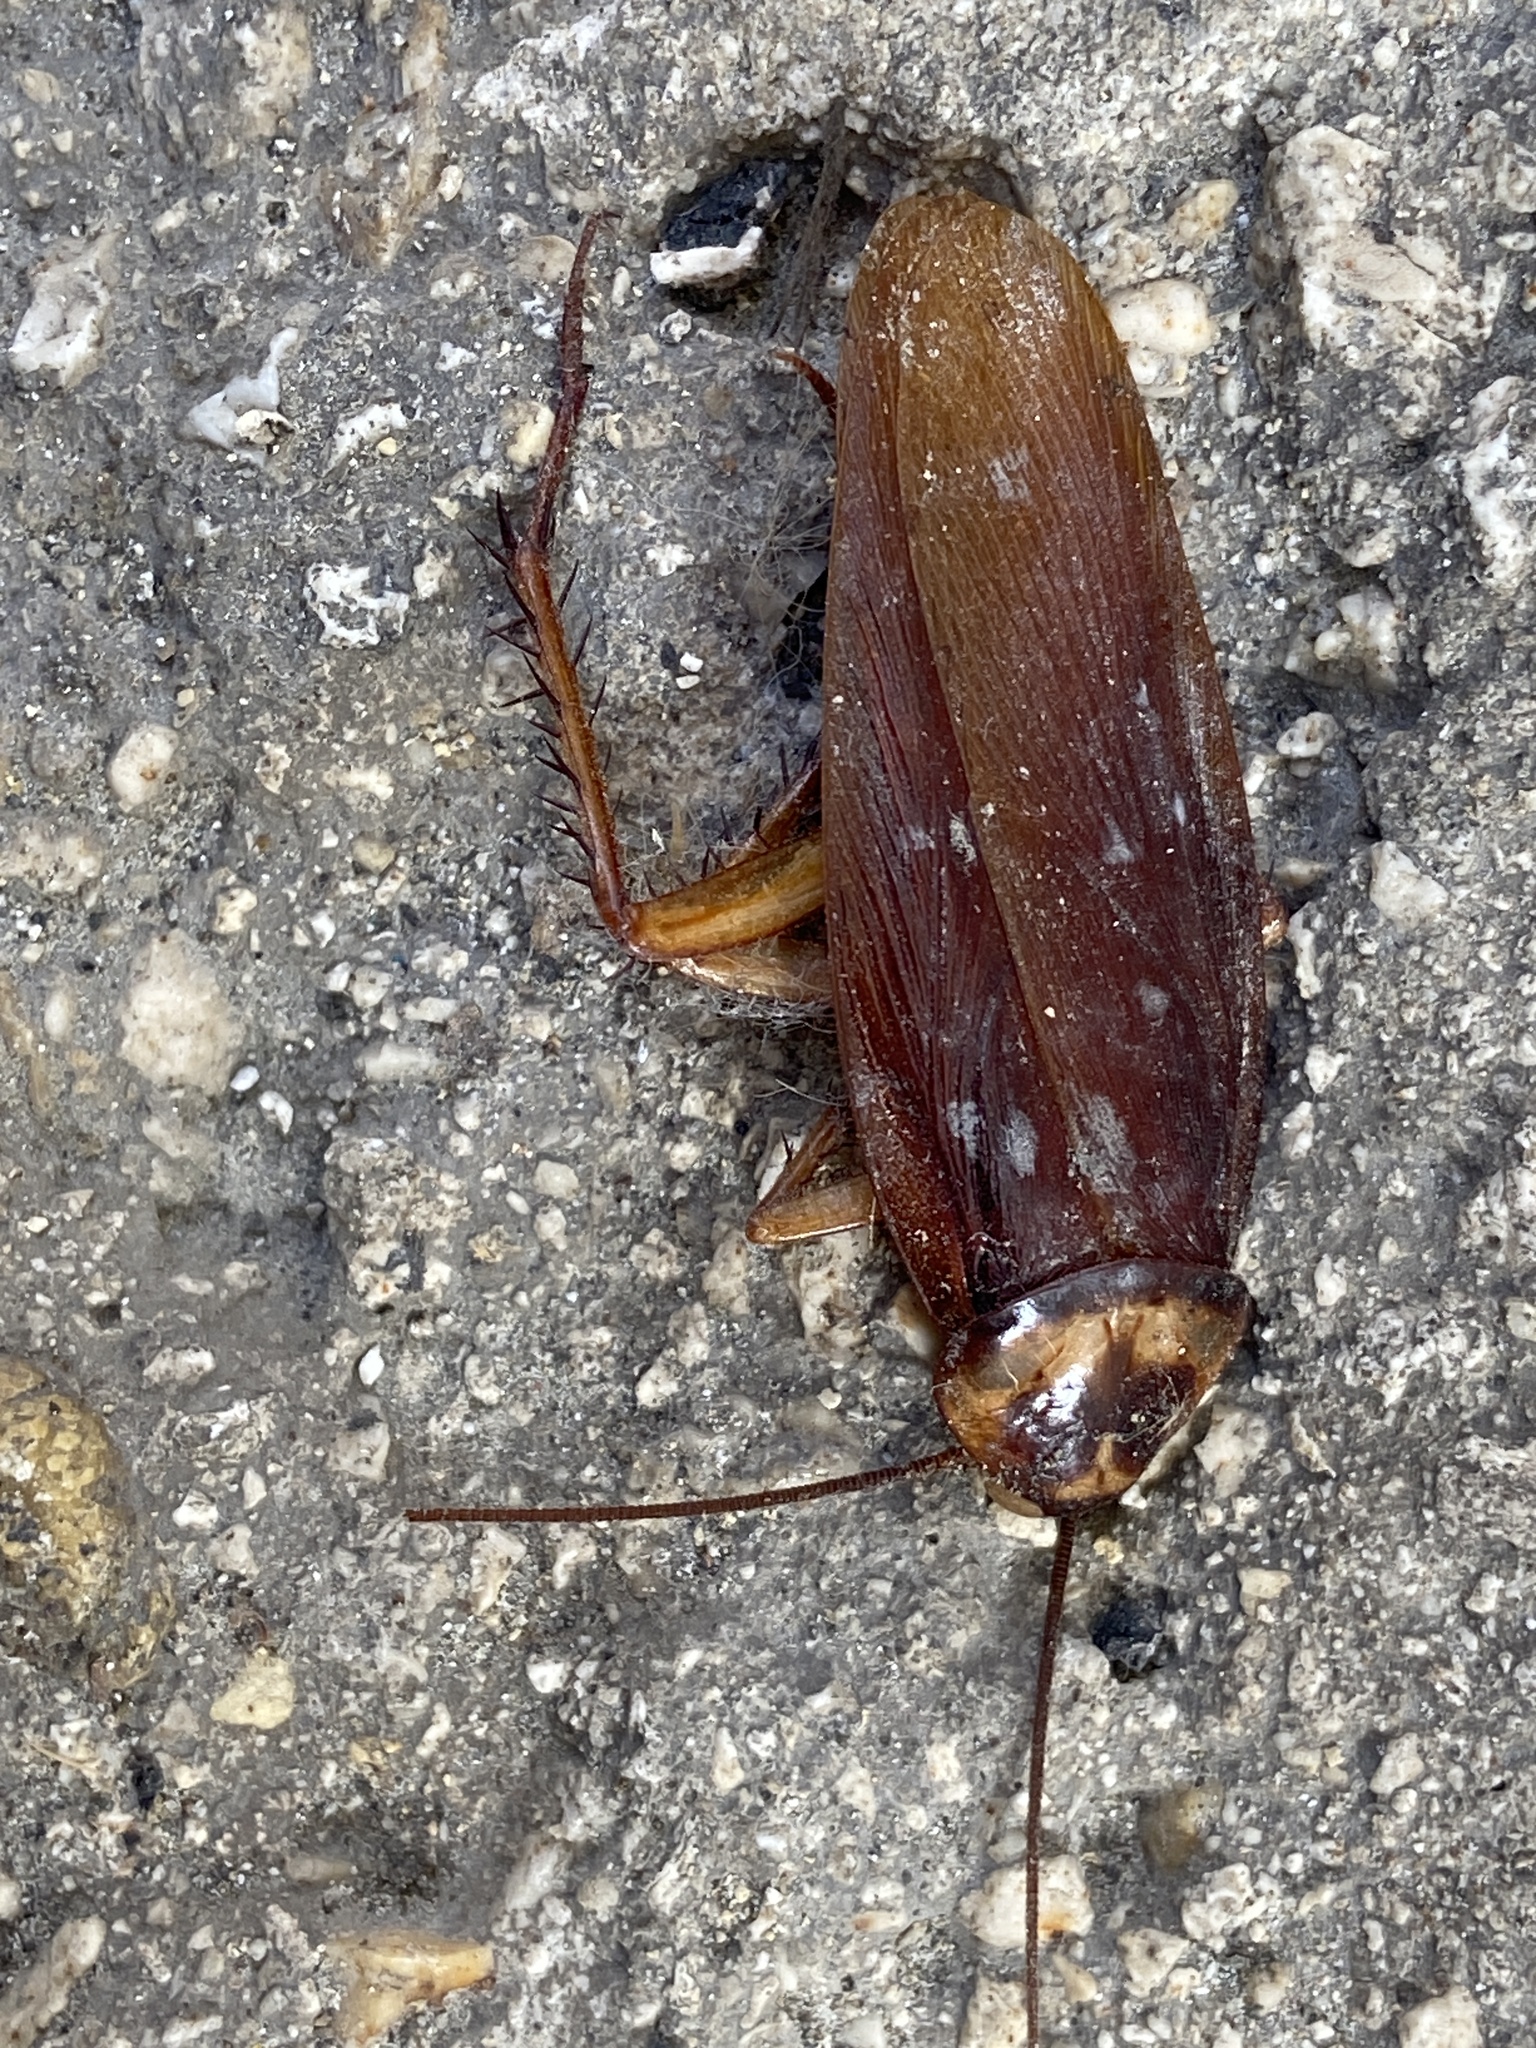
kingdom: Animalia
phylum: Arthropoda
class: Insecta
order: Blattodea
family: Blattidae
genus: Periplaneta
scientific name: Periplaneta americana
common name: American cockroach
